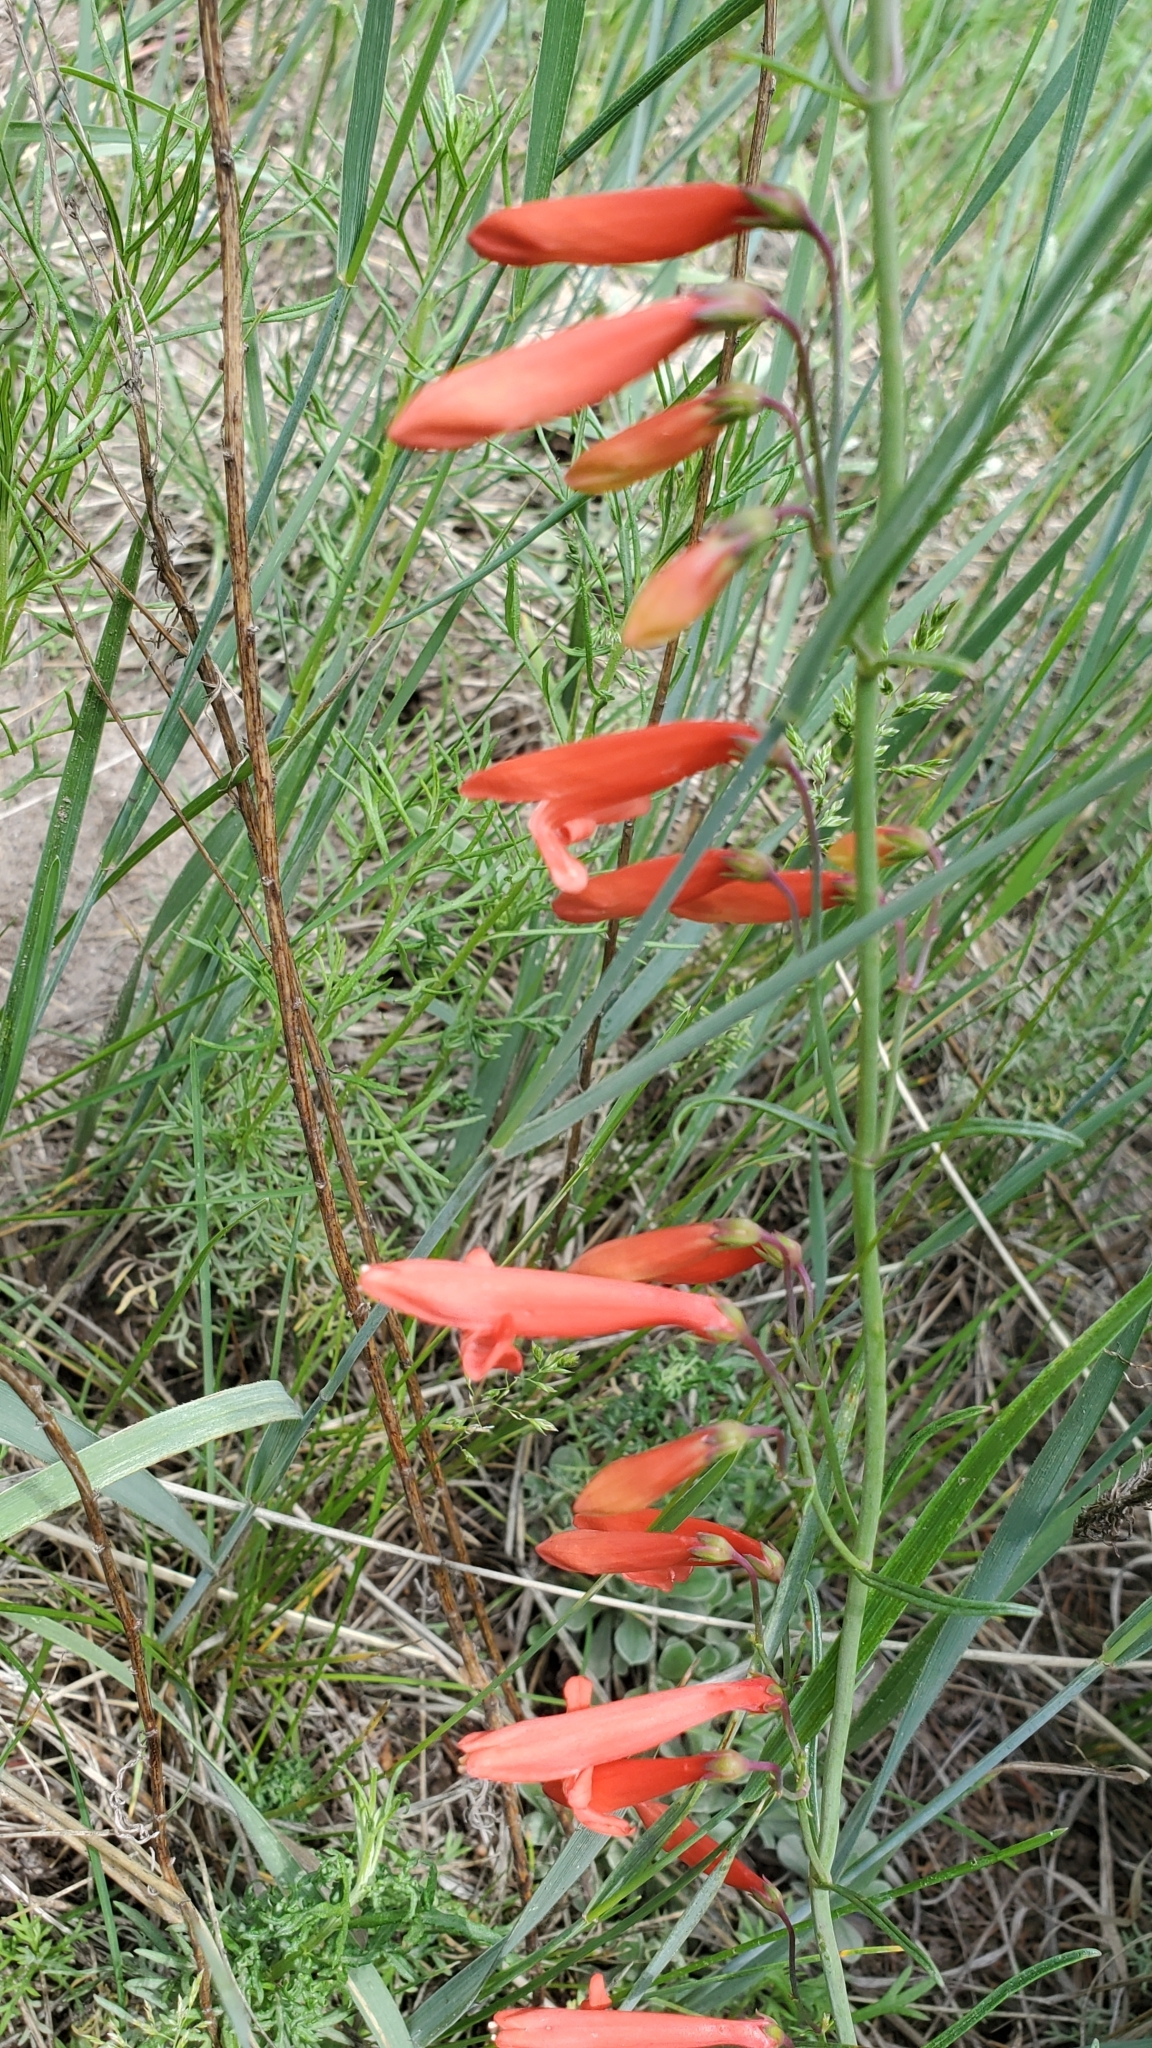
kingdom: Plantae
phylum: Tracheophyta
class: Magnoliopsida
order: Lamiales
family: Plantaginaceae
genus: Penstemon
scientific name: Penstemon barbatus
